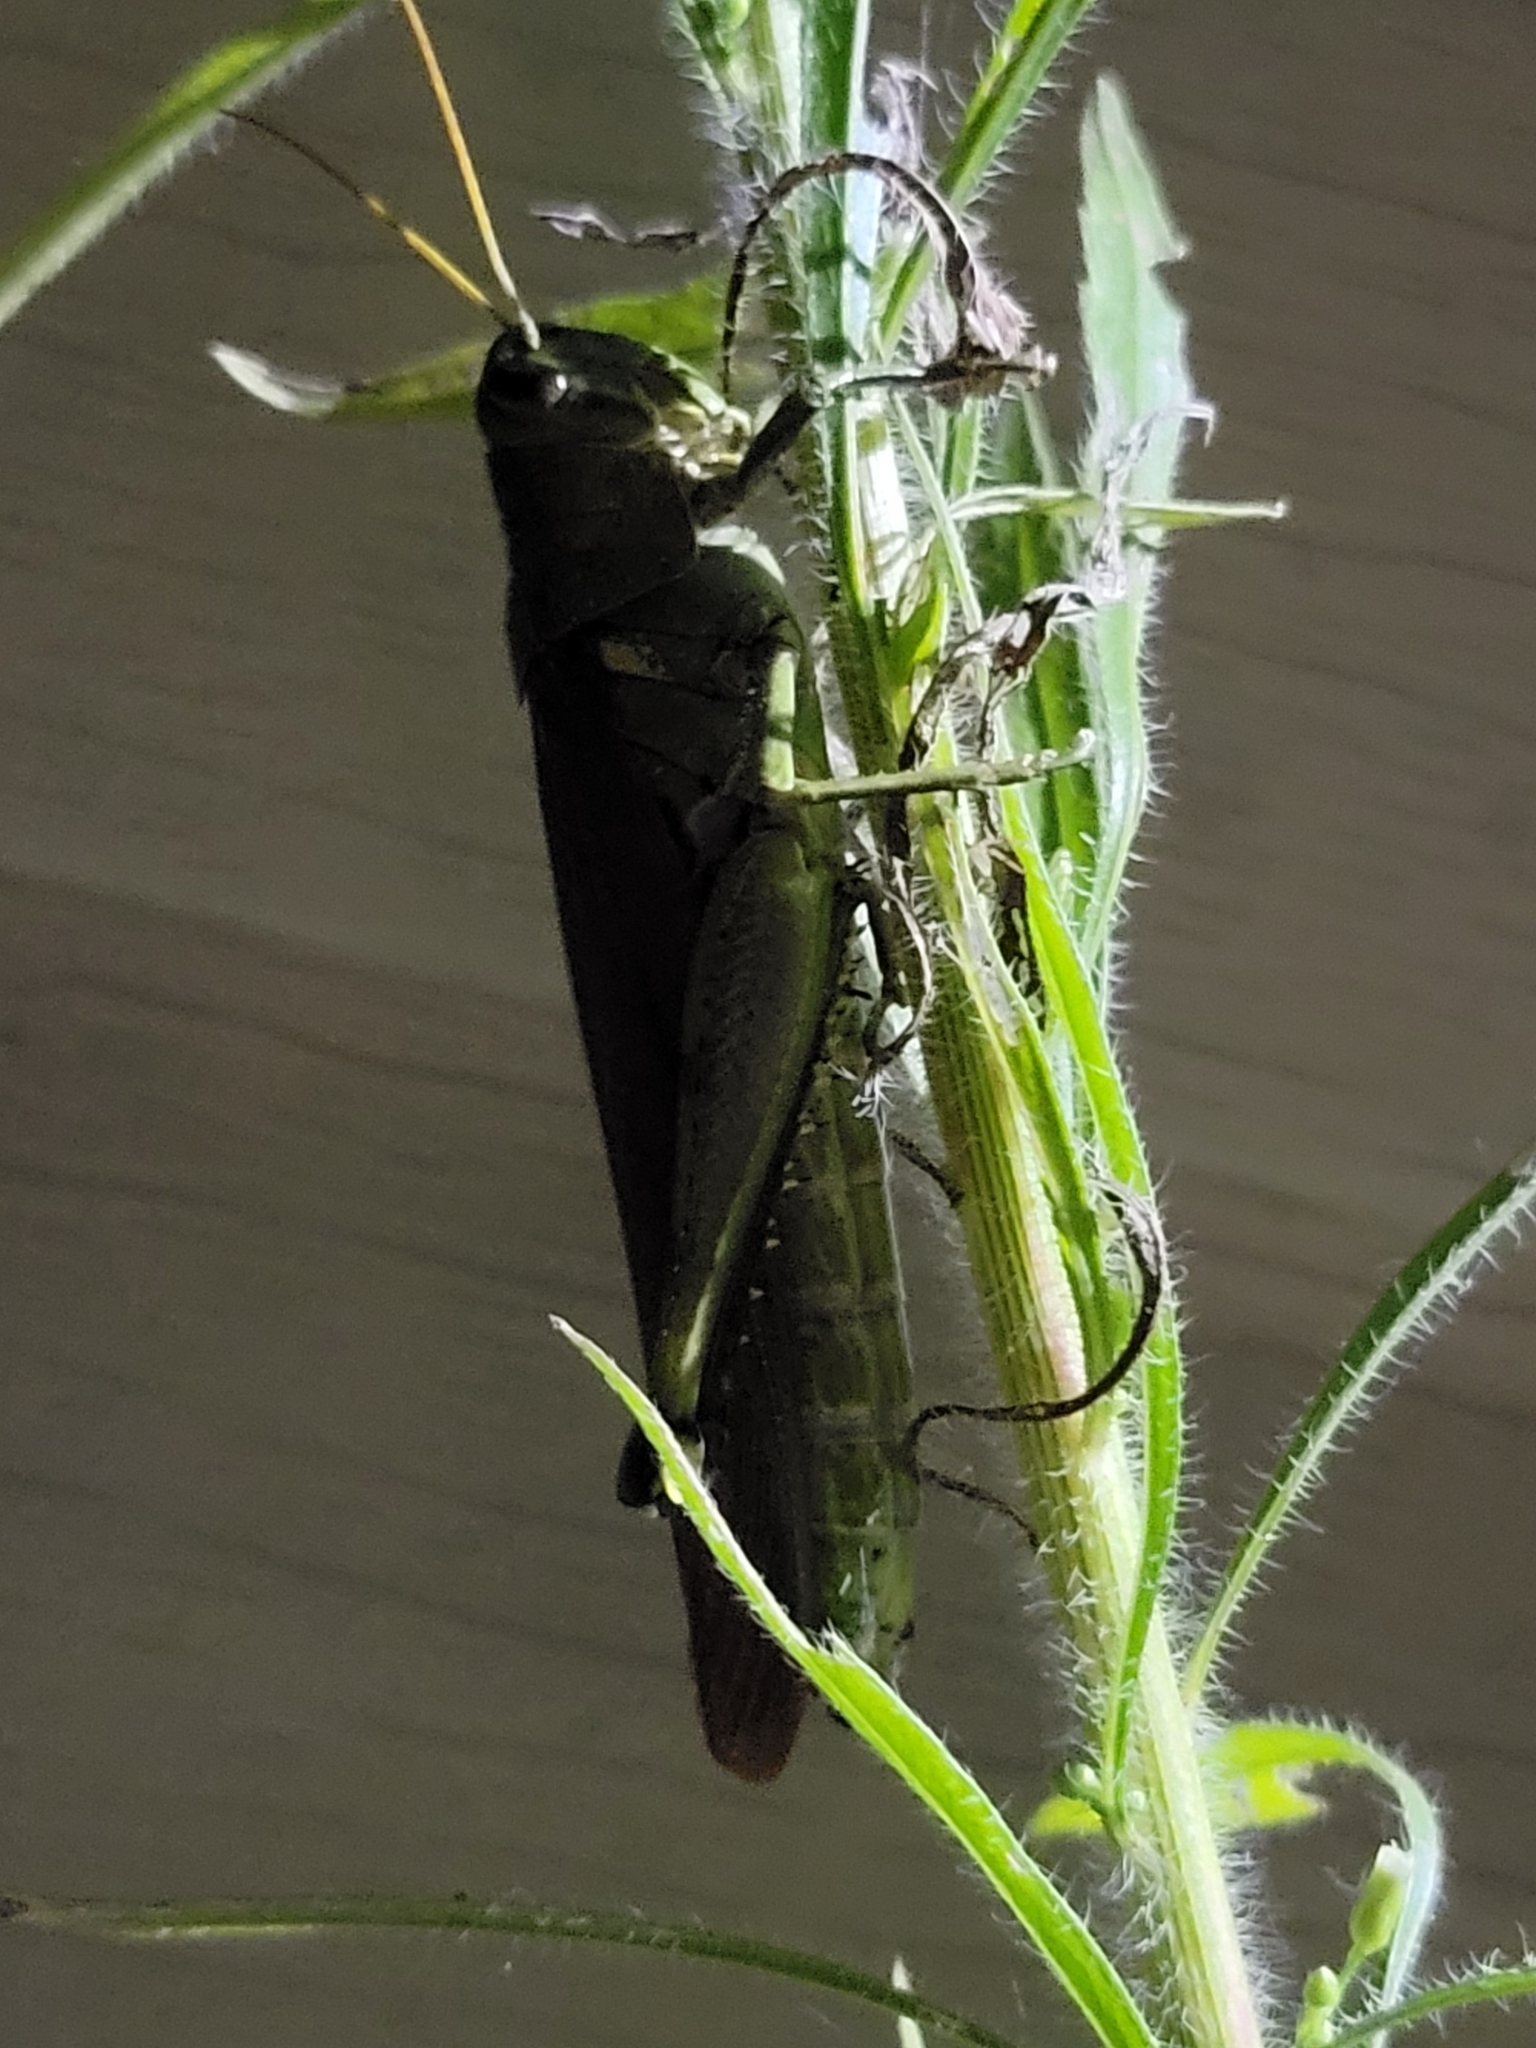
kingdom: Animalia
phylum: Arthropoda
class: Insecta
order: Orthoptera
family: Acrididae
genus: Schistocerca
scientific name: Schistocerca obscura
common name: Obscure bird grasshopper
